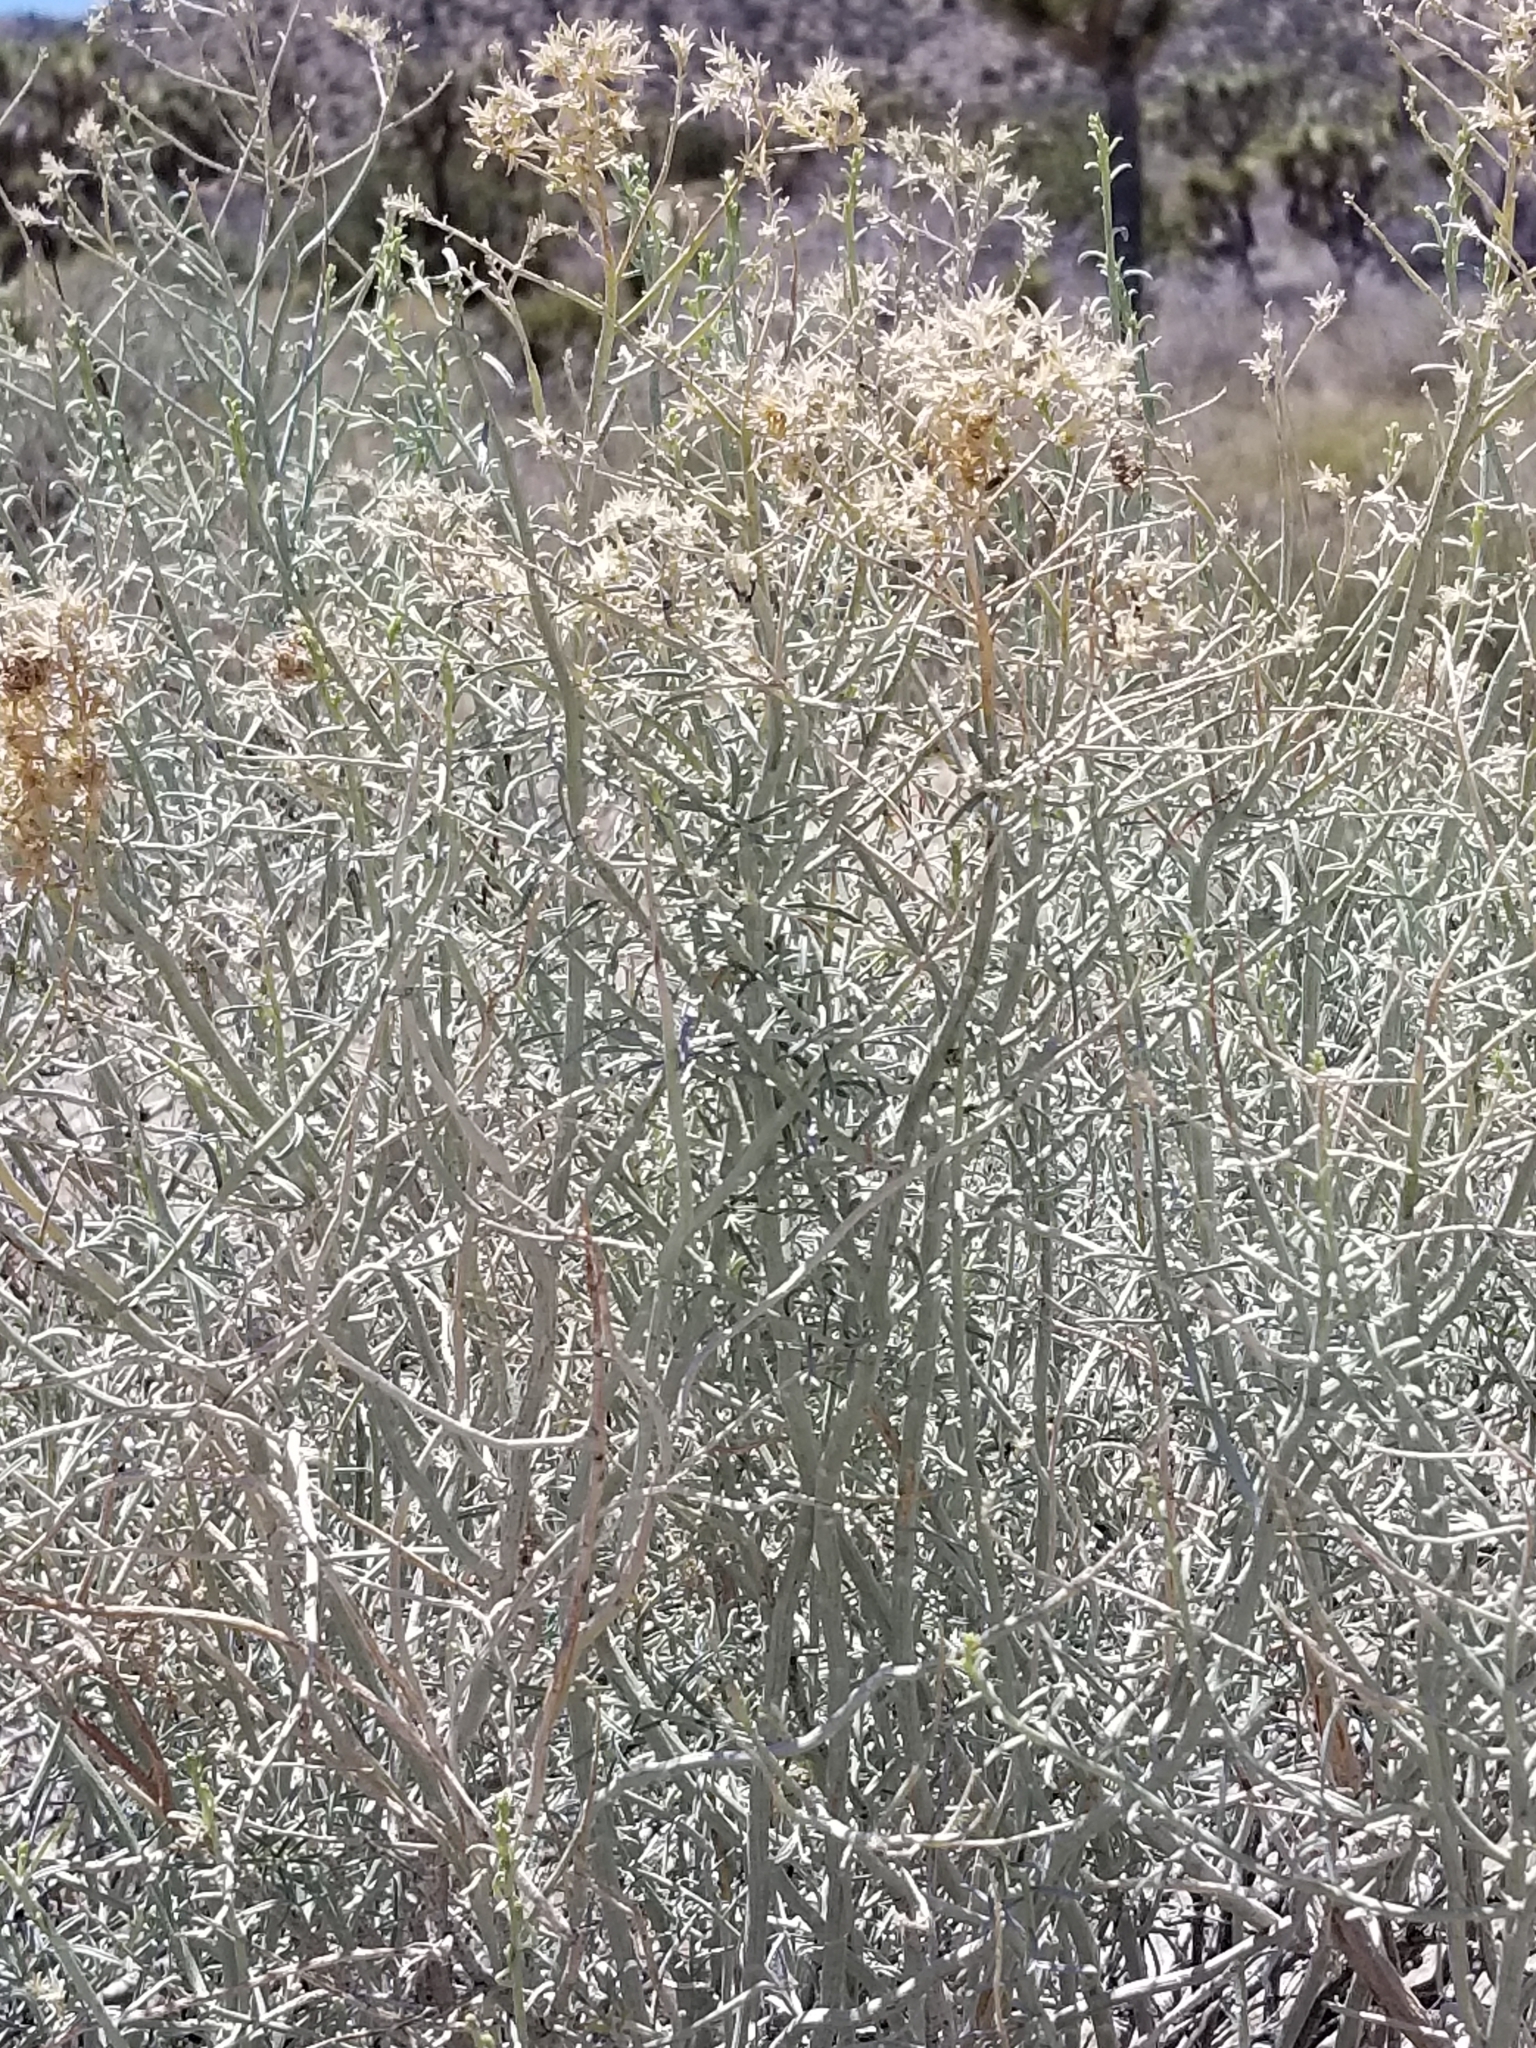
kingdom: Plantae
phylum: Tracheophyta
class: Magnoliopsida
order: Asterales
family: Asteraceae
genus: Ericameria
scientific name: Ericameria nauseosa
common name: Rubber rabbitbrush
